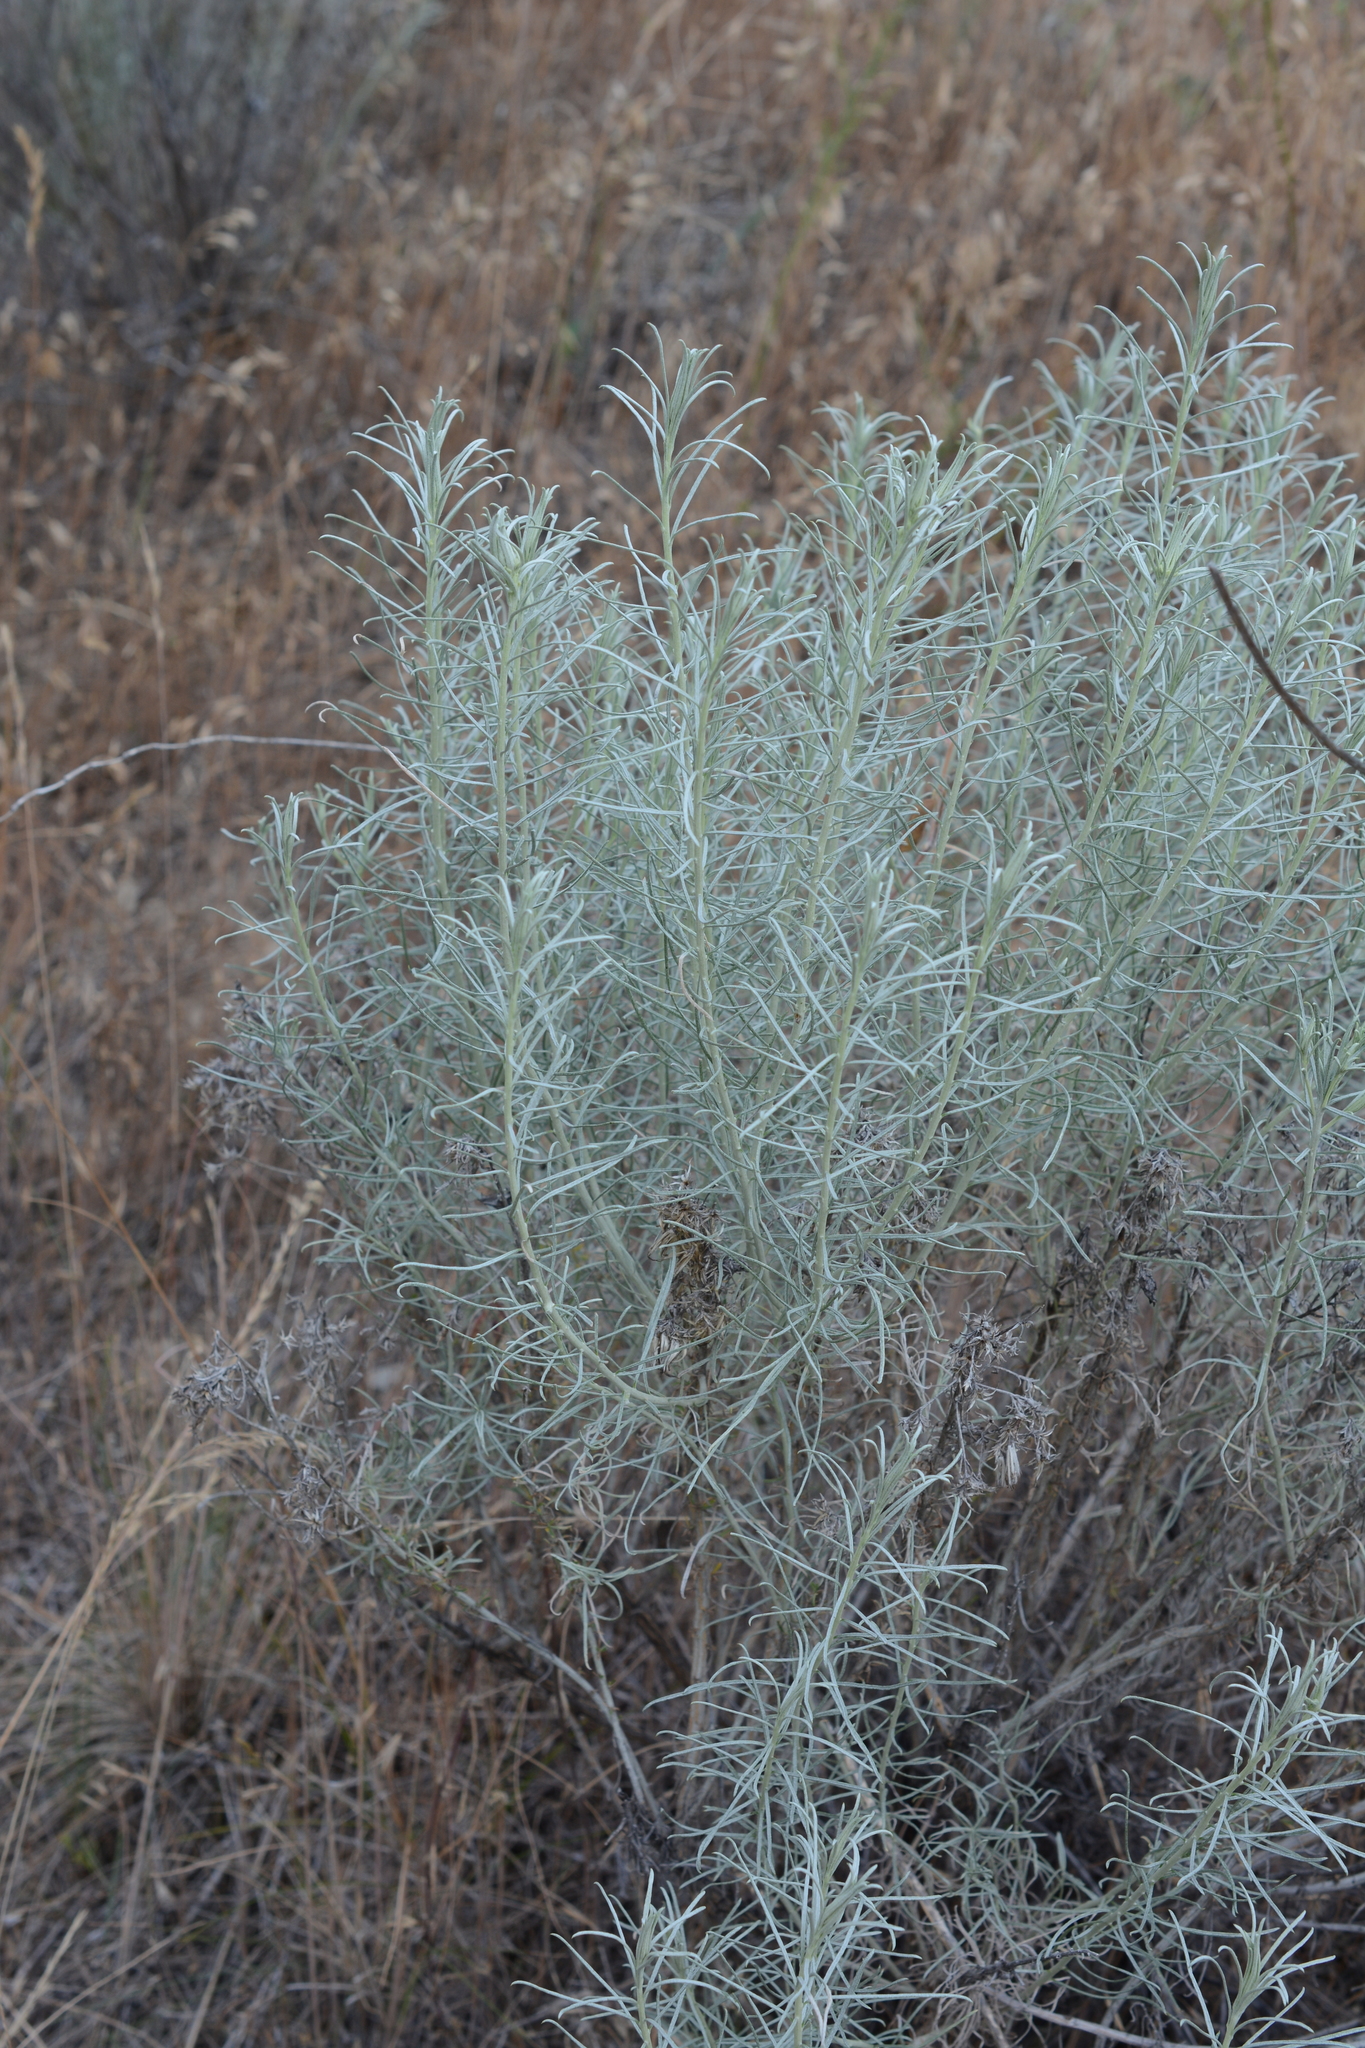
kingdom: Plantae
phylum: Tracheophyta
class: Magnoliopsida
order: Asterales
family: Asteraceae
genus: Ericameria
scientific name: Ericameria nauseosa
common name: Rubber rabbitbrush
